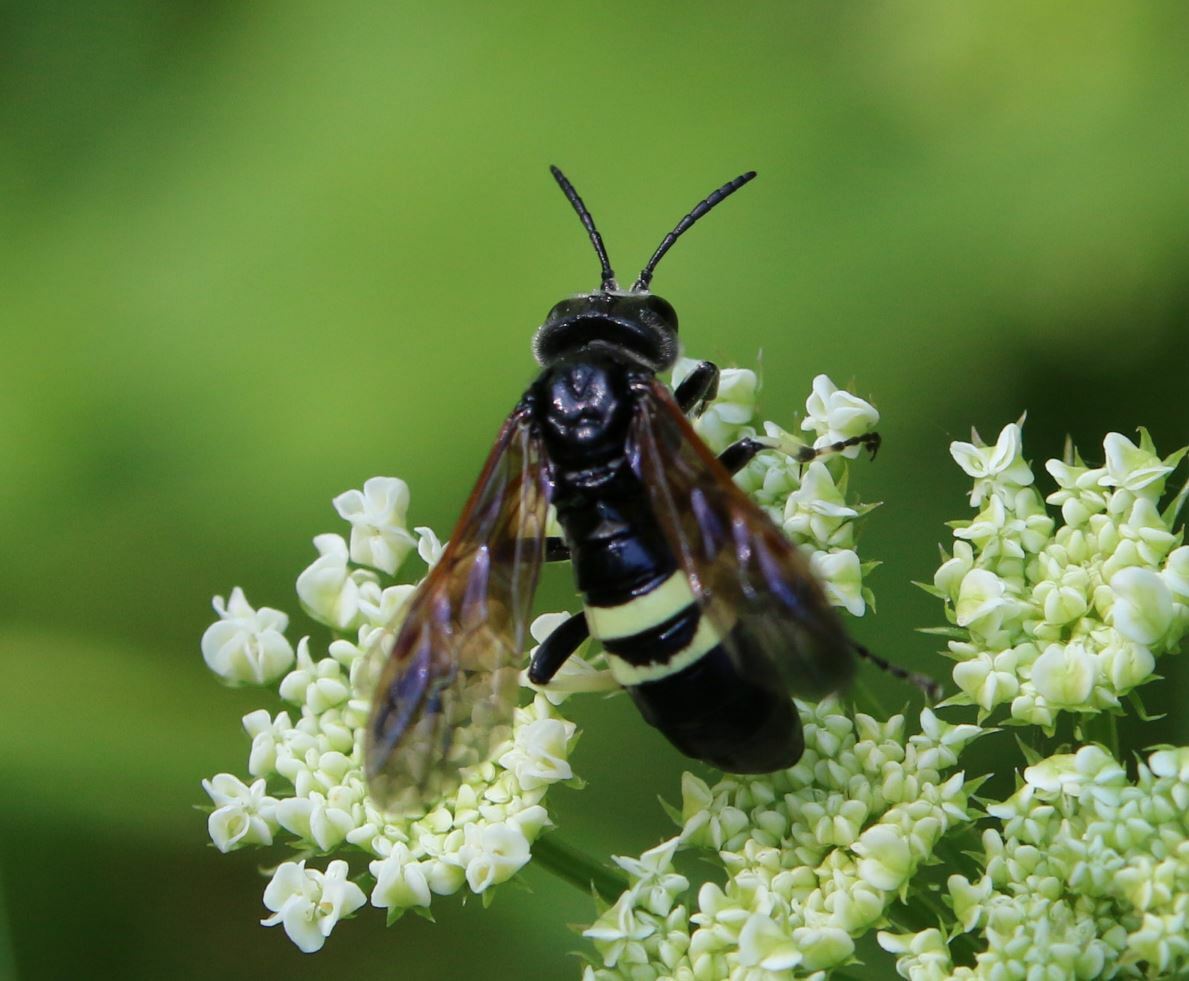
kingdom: Animalia
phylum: Arthropoda
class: Insecta
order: Hymenoptera
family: Tenthredinidae
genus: Tenthredo
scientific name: Tenthredo bifasciata
